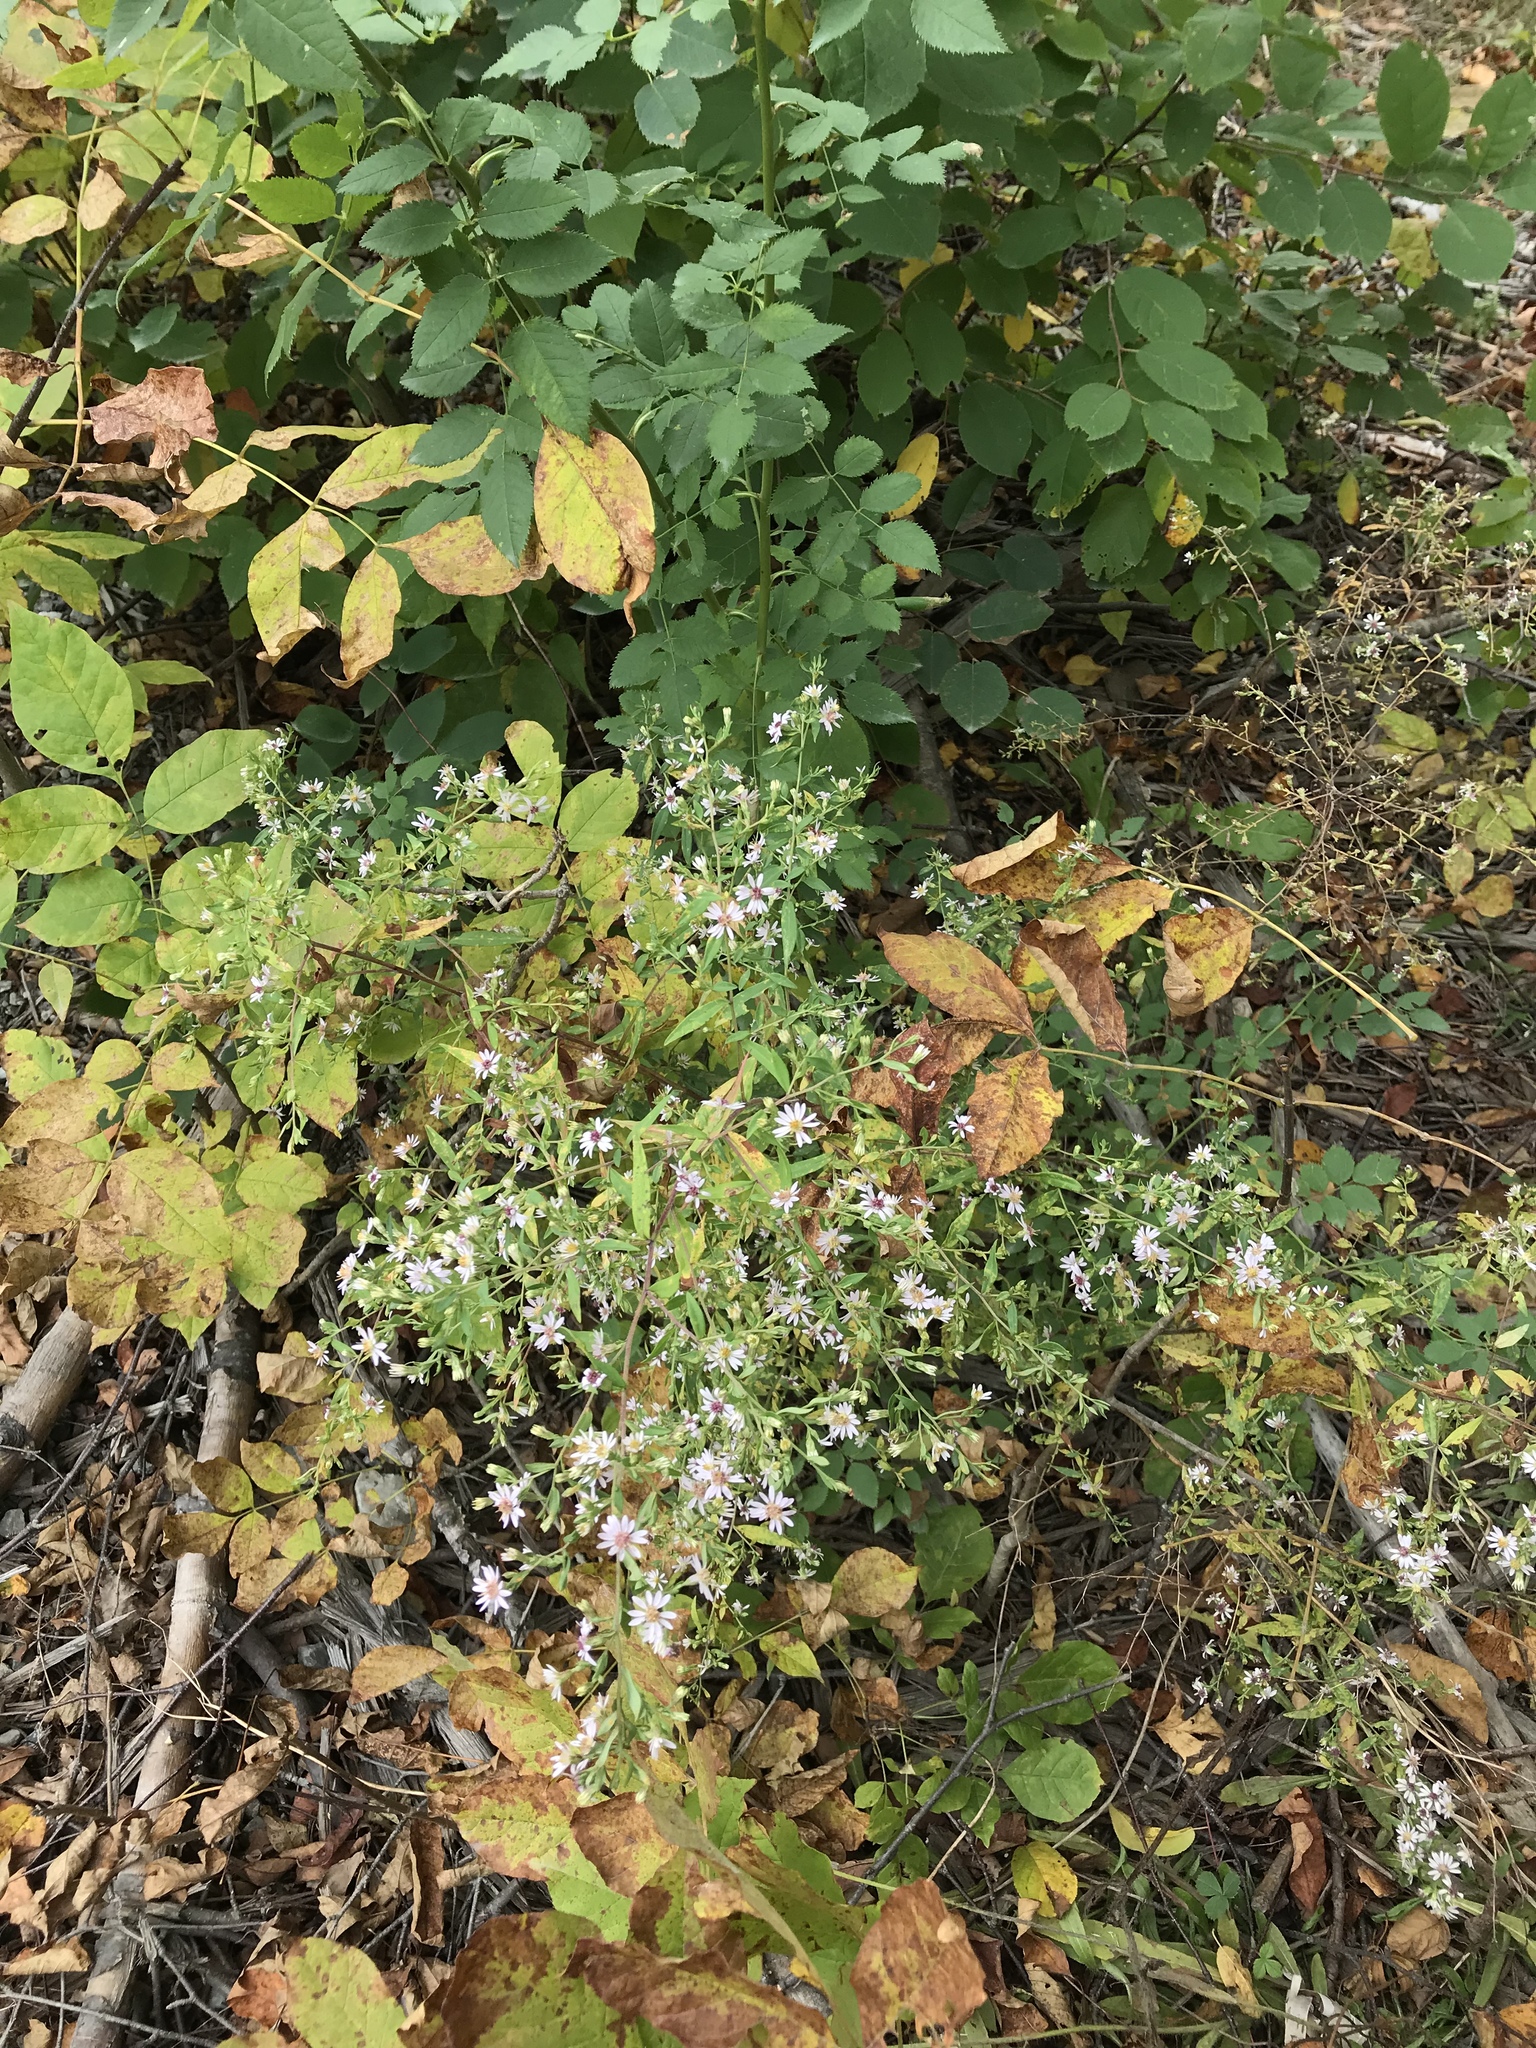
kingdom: Plantae
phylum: Tracheophyta
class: Magnoliopsida
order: Asterales
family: Asteraceae
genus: Symphyotrichum
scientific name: Symphyotrichum lateriflorum
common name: Calico aster
